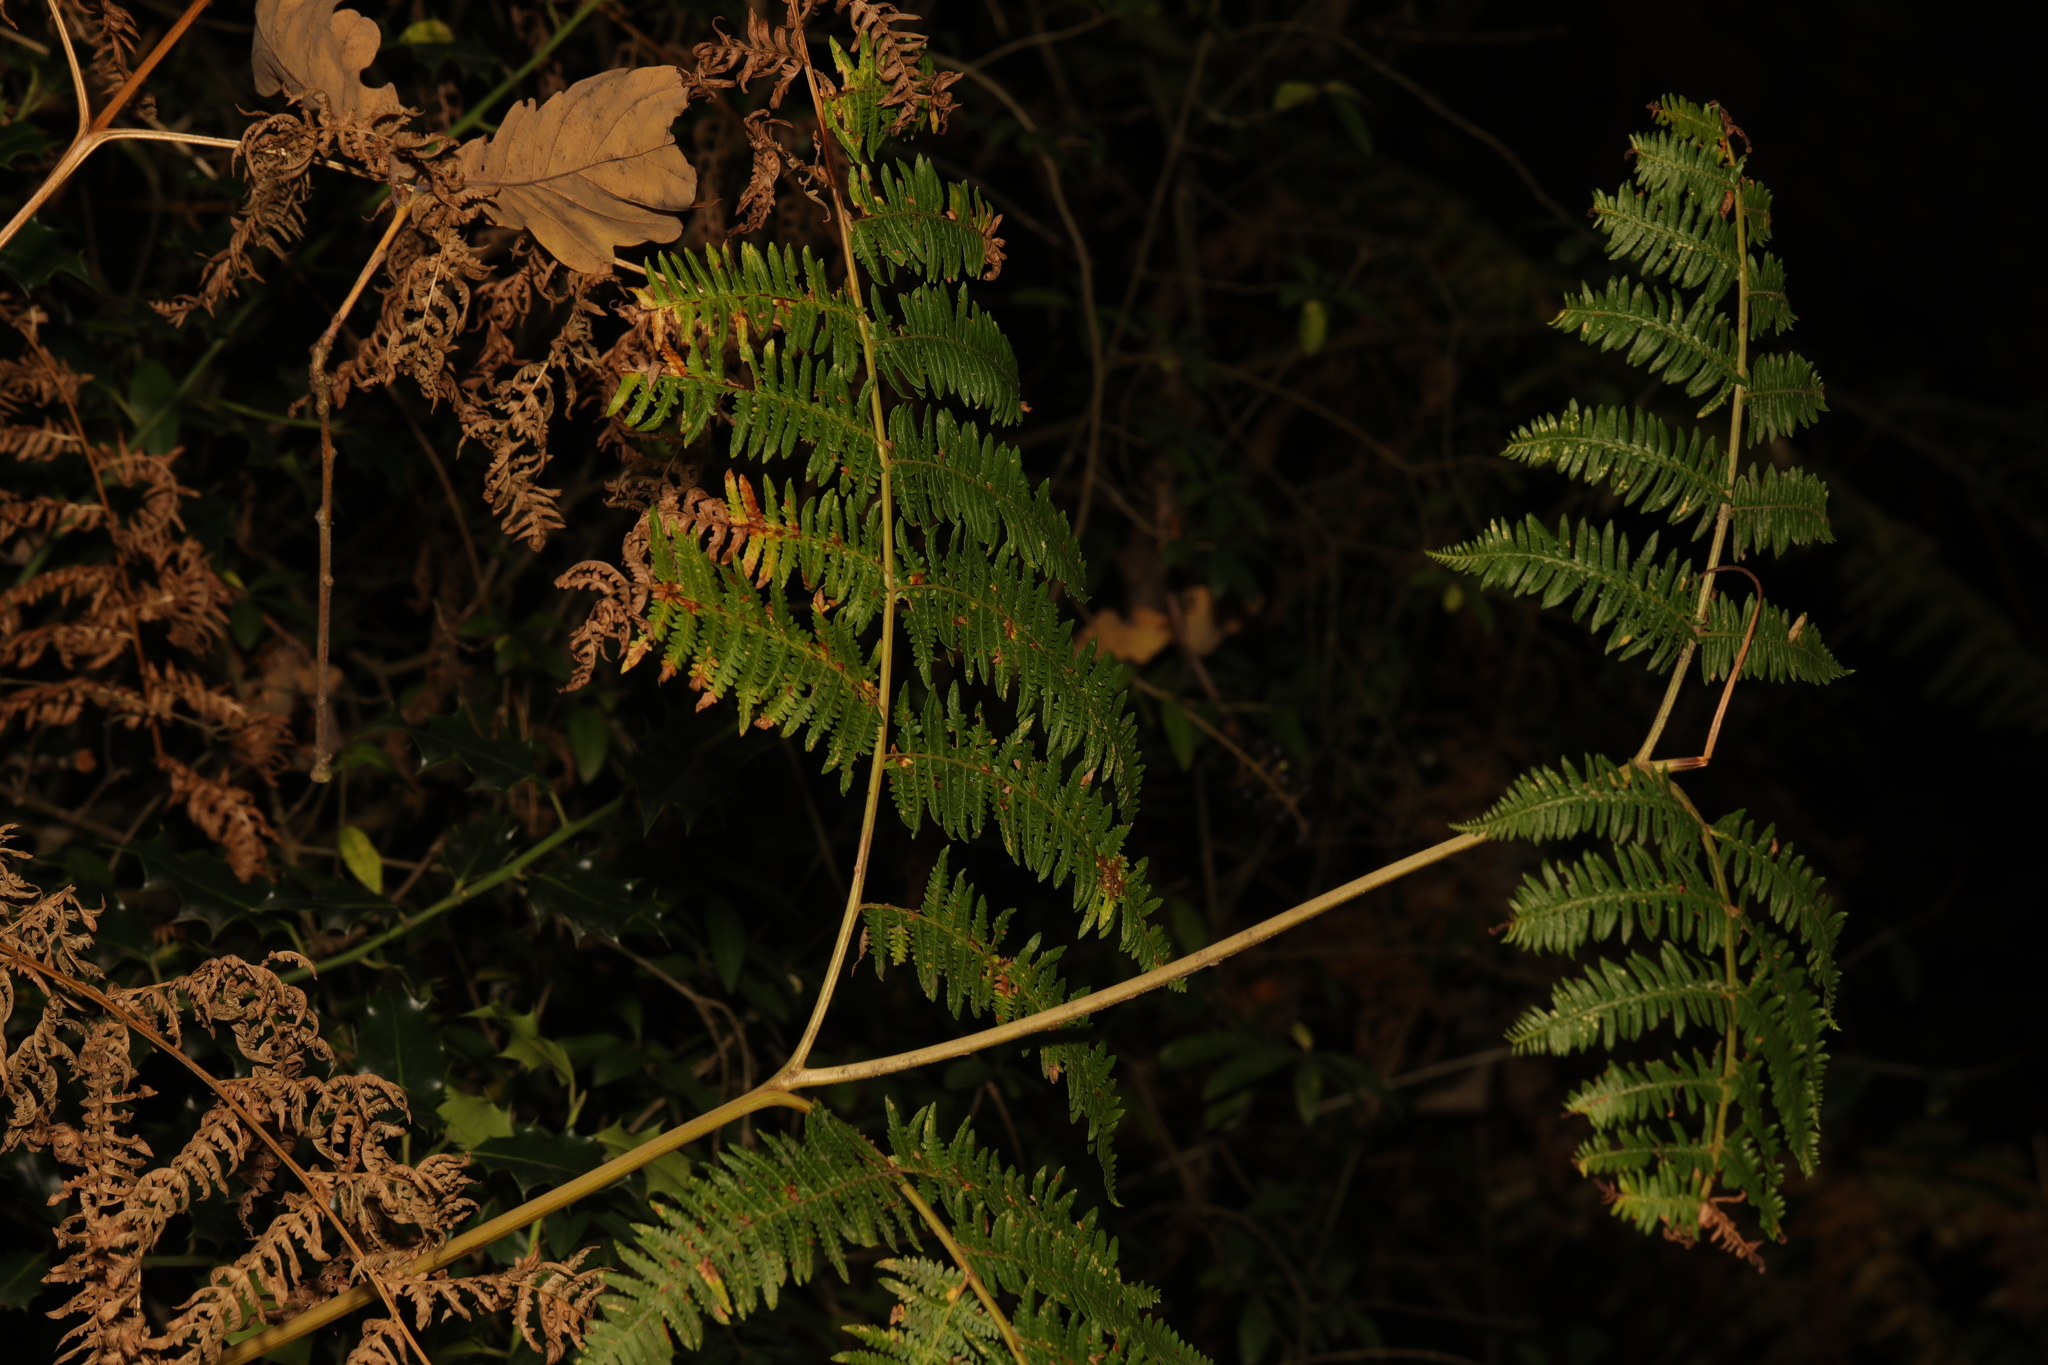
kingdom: Plantae
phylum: Tracheophyta
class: Polypodiopsida
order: Polypodiales
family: Dennstaedtiaceae
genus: Pteridium
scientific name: Pteridium aquilinum
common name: Bracken
